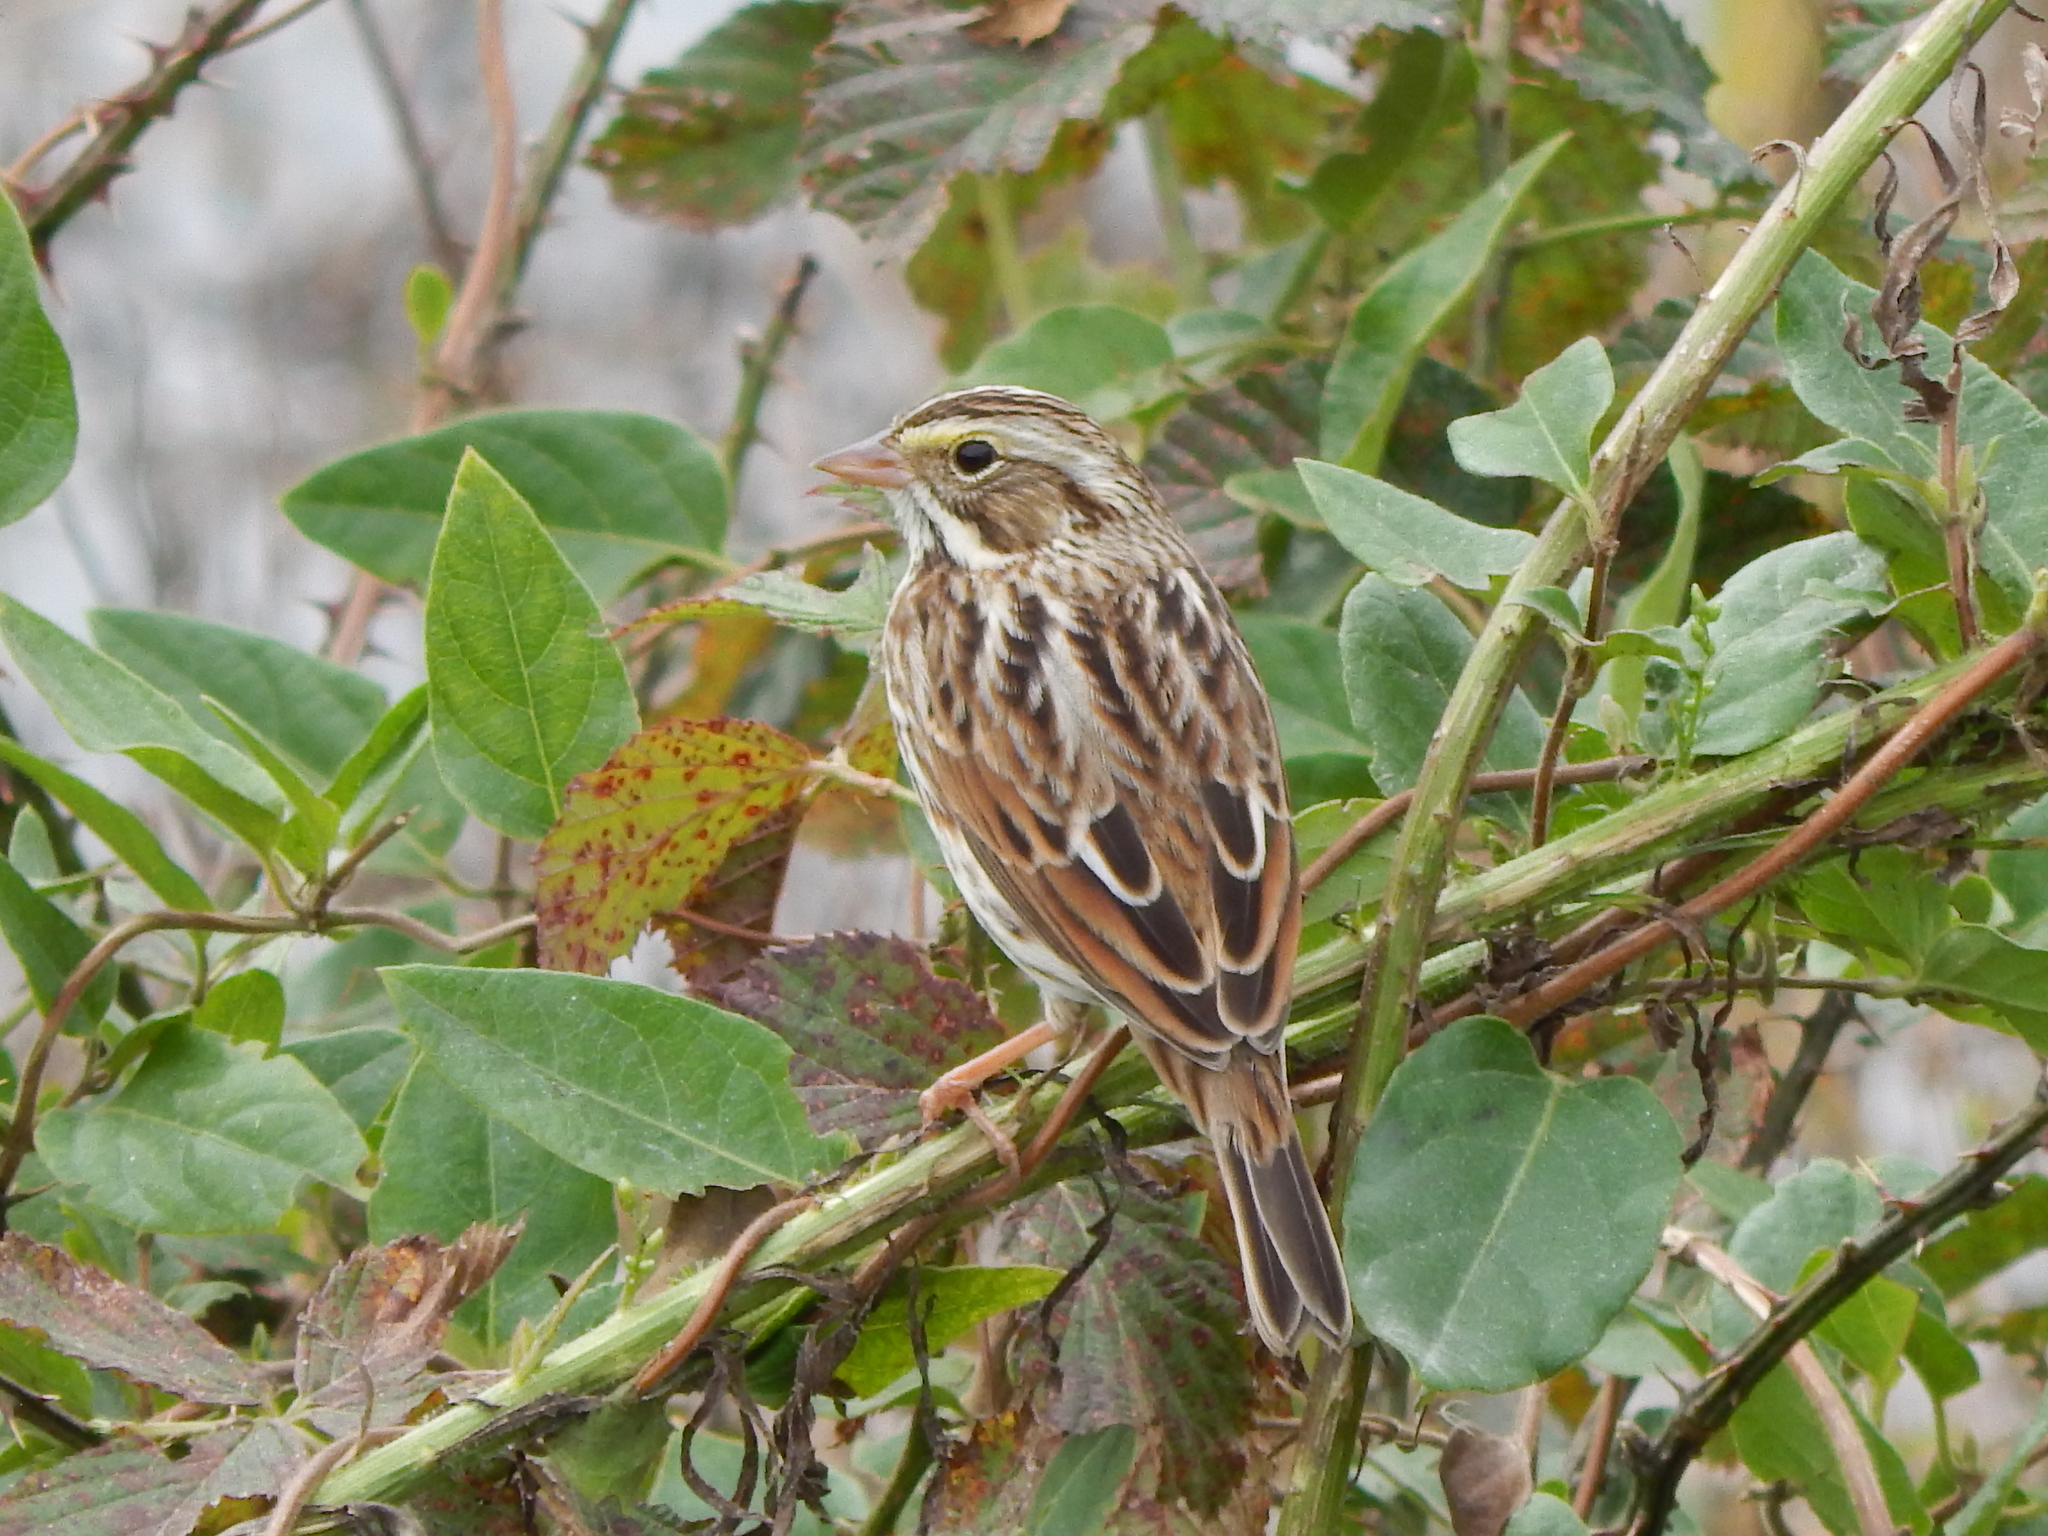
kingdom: Animalia
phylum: Chordata
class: Aves
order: Passeriformes
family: Passerellidae
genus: Passerculus
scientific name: Passerculus sandwichensis
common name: Savannah sparrow
